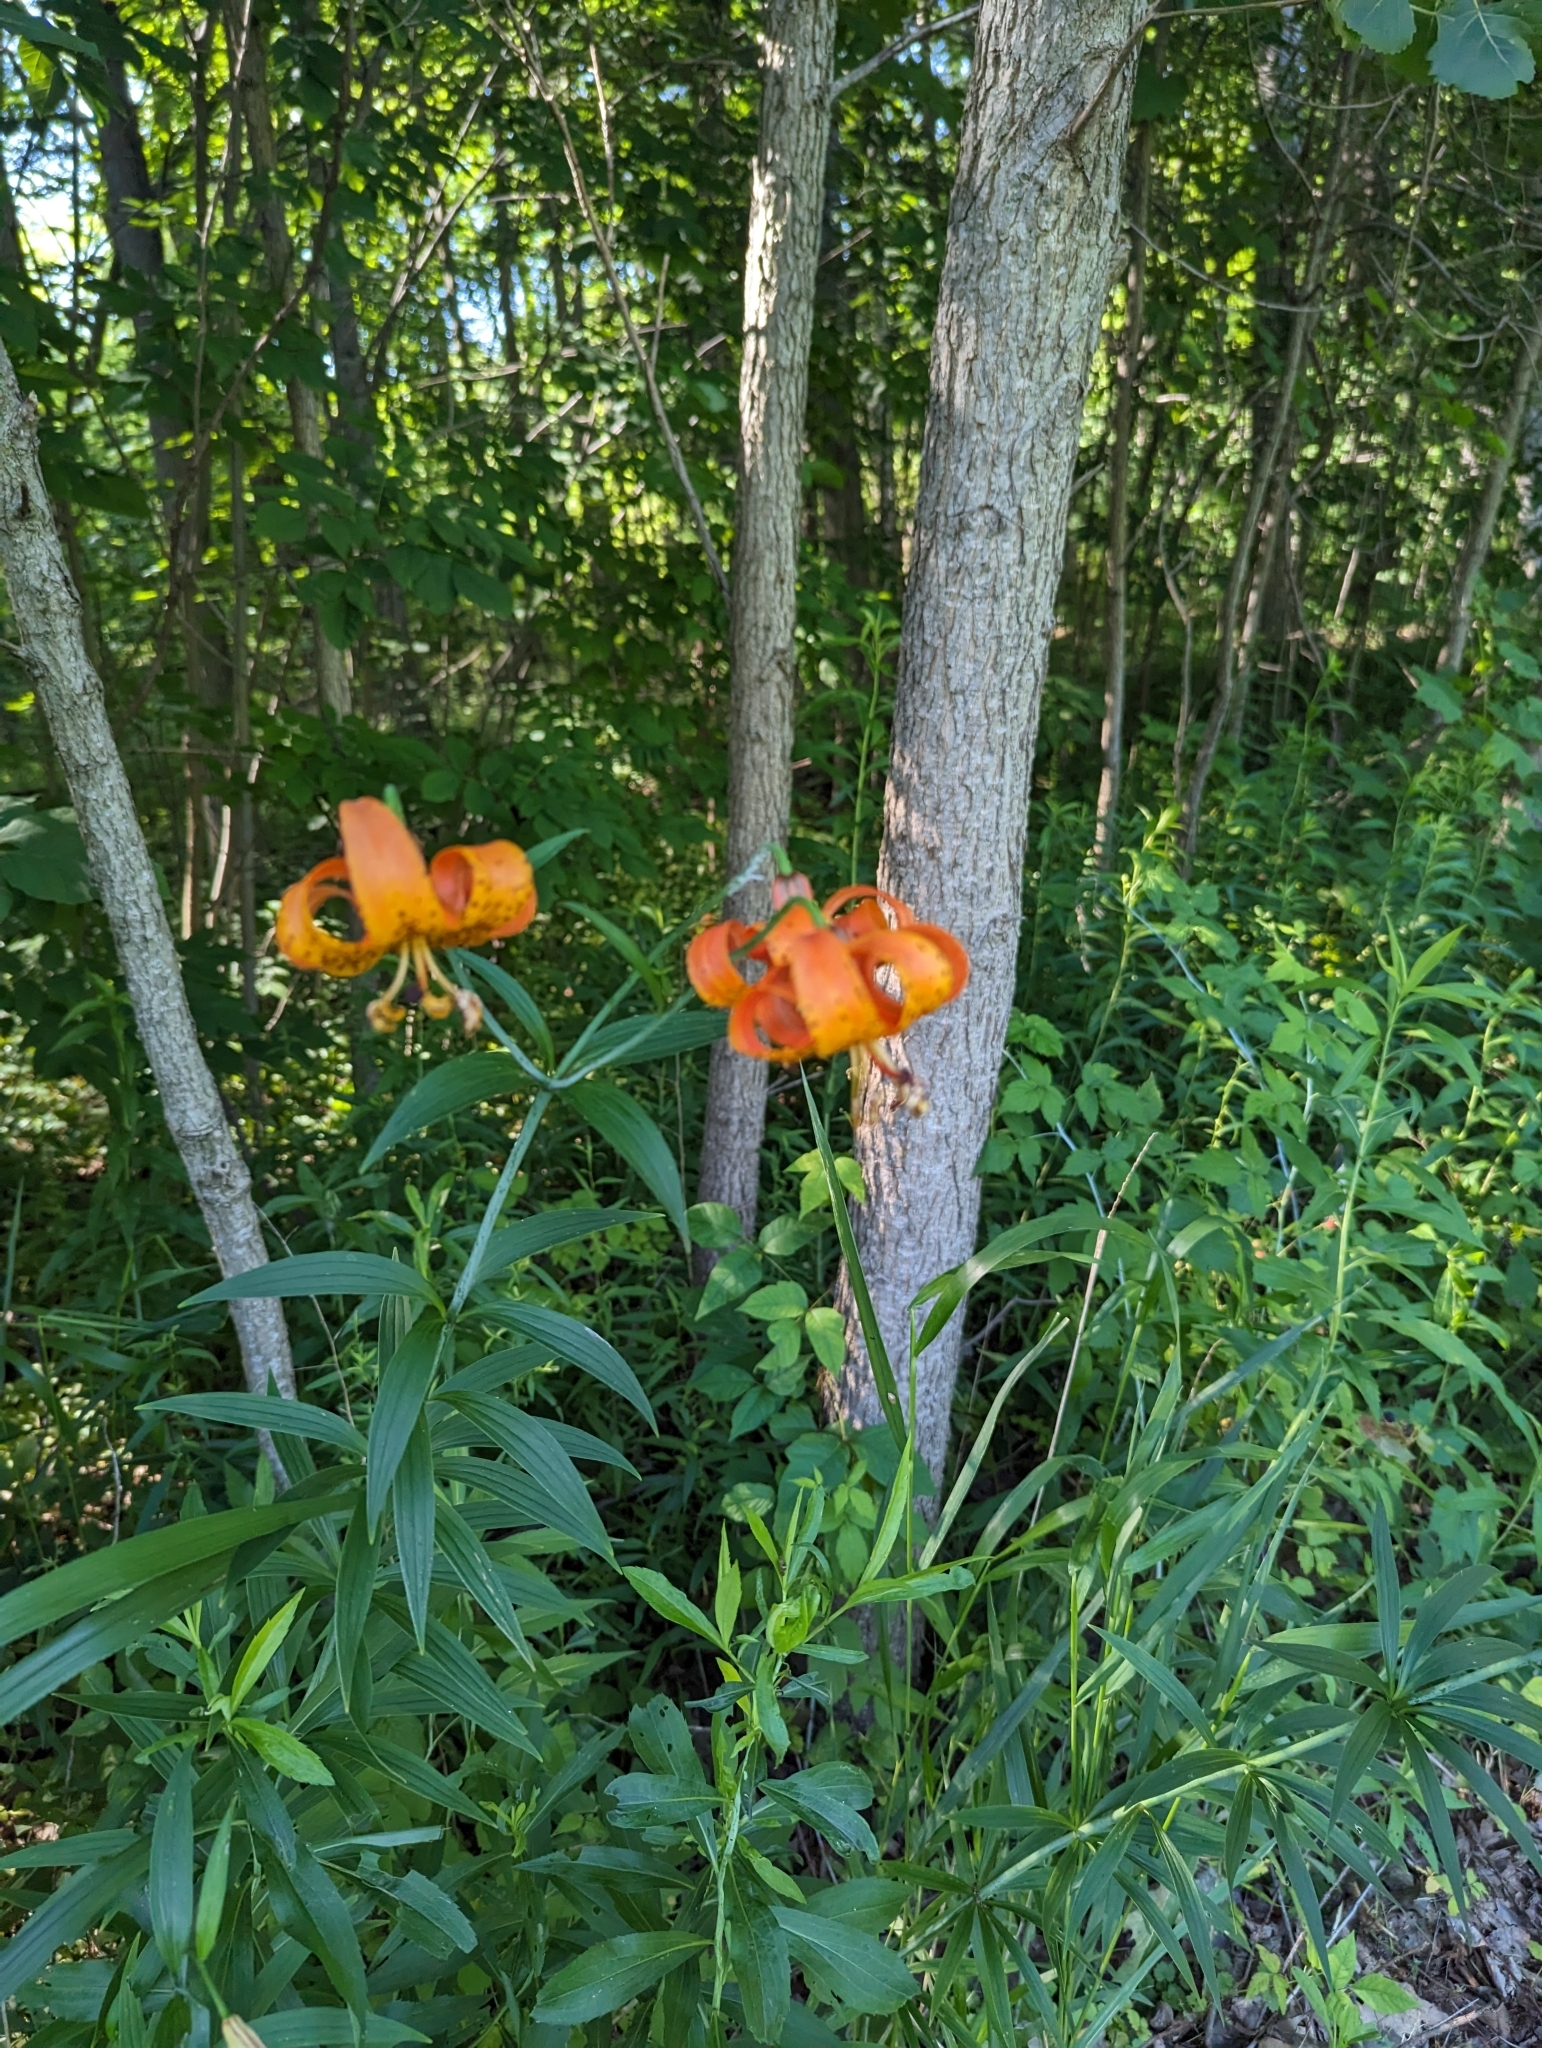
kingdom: Plantae
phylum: Tracheophyta
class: Liliopsida
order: Liliales
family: Liliaceae
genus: Lilium
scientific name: Lilium michiganense
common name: Michigan lily
